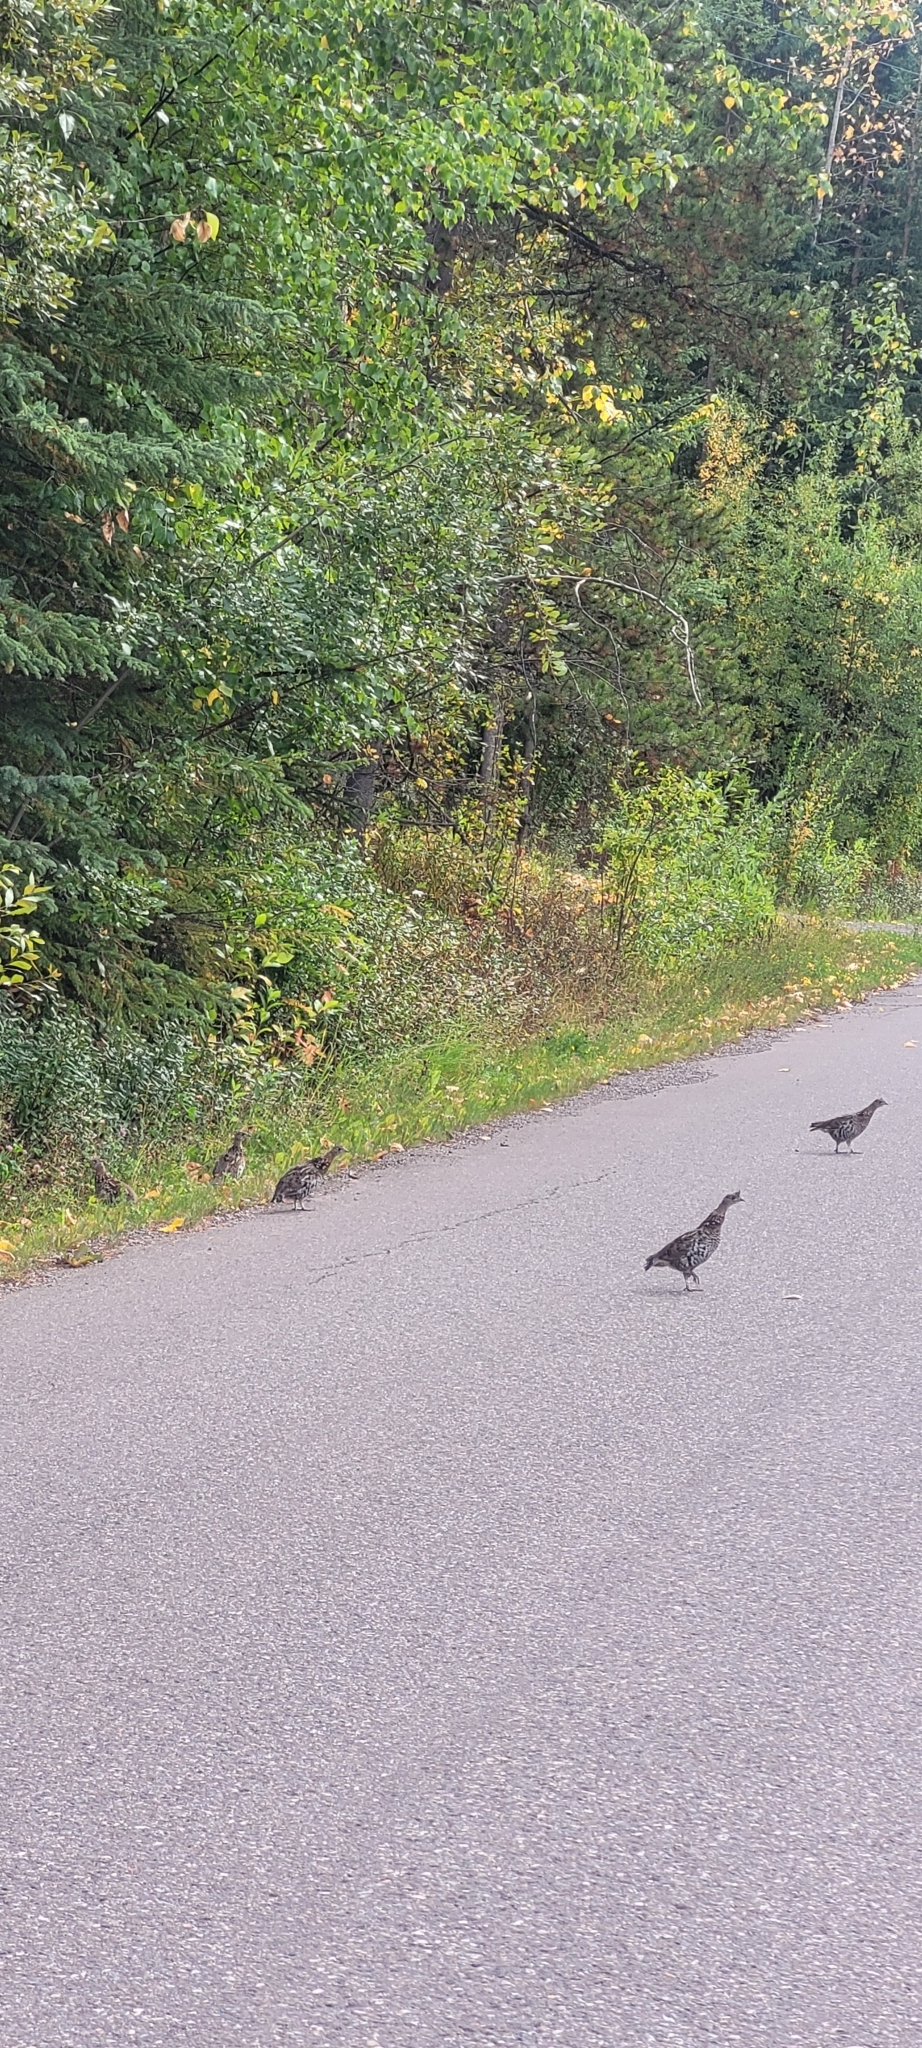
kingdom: Animalia
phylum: Chordata
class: Aves
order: Galliformes
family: Phasianidae
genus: Bonasa
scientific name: Bonasa umbellus
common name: Ruffed grouse
